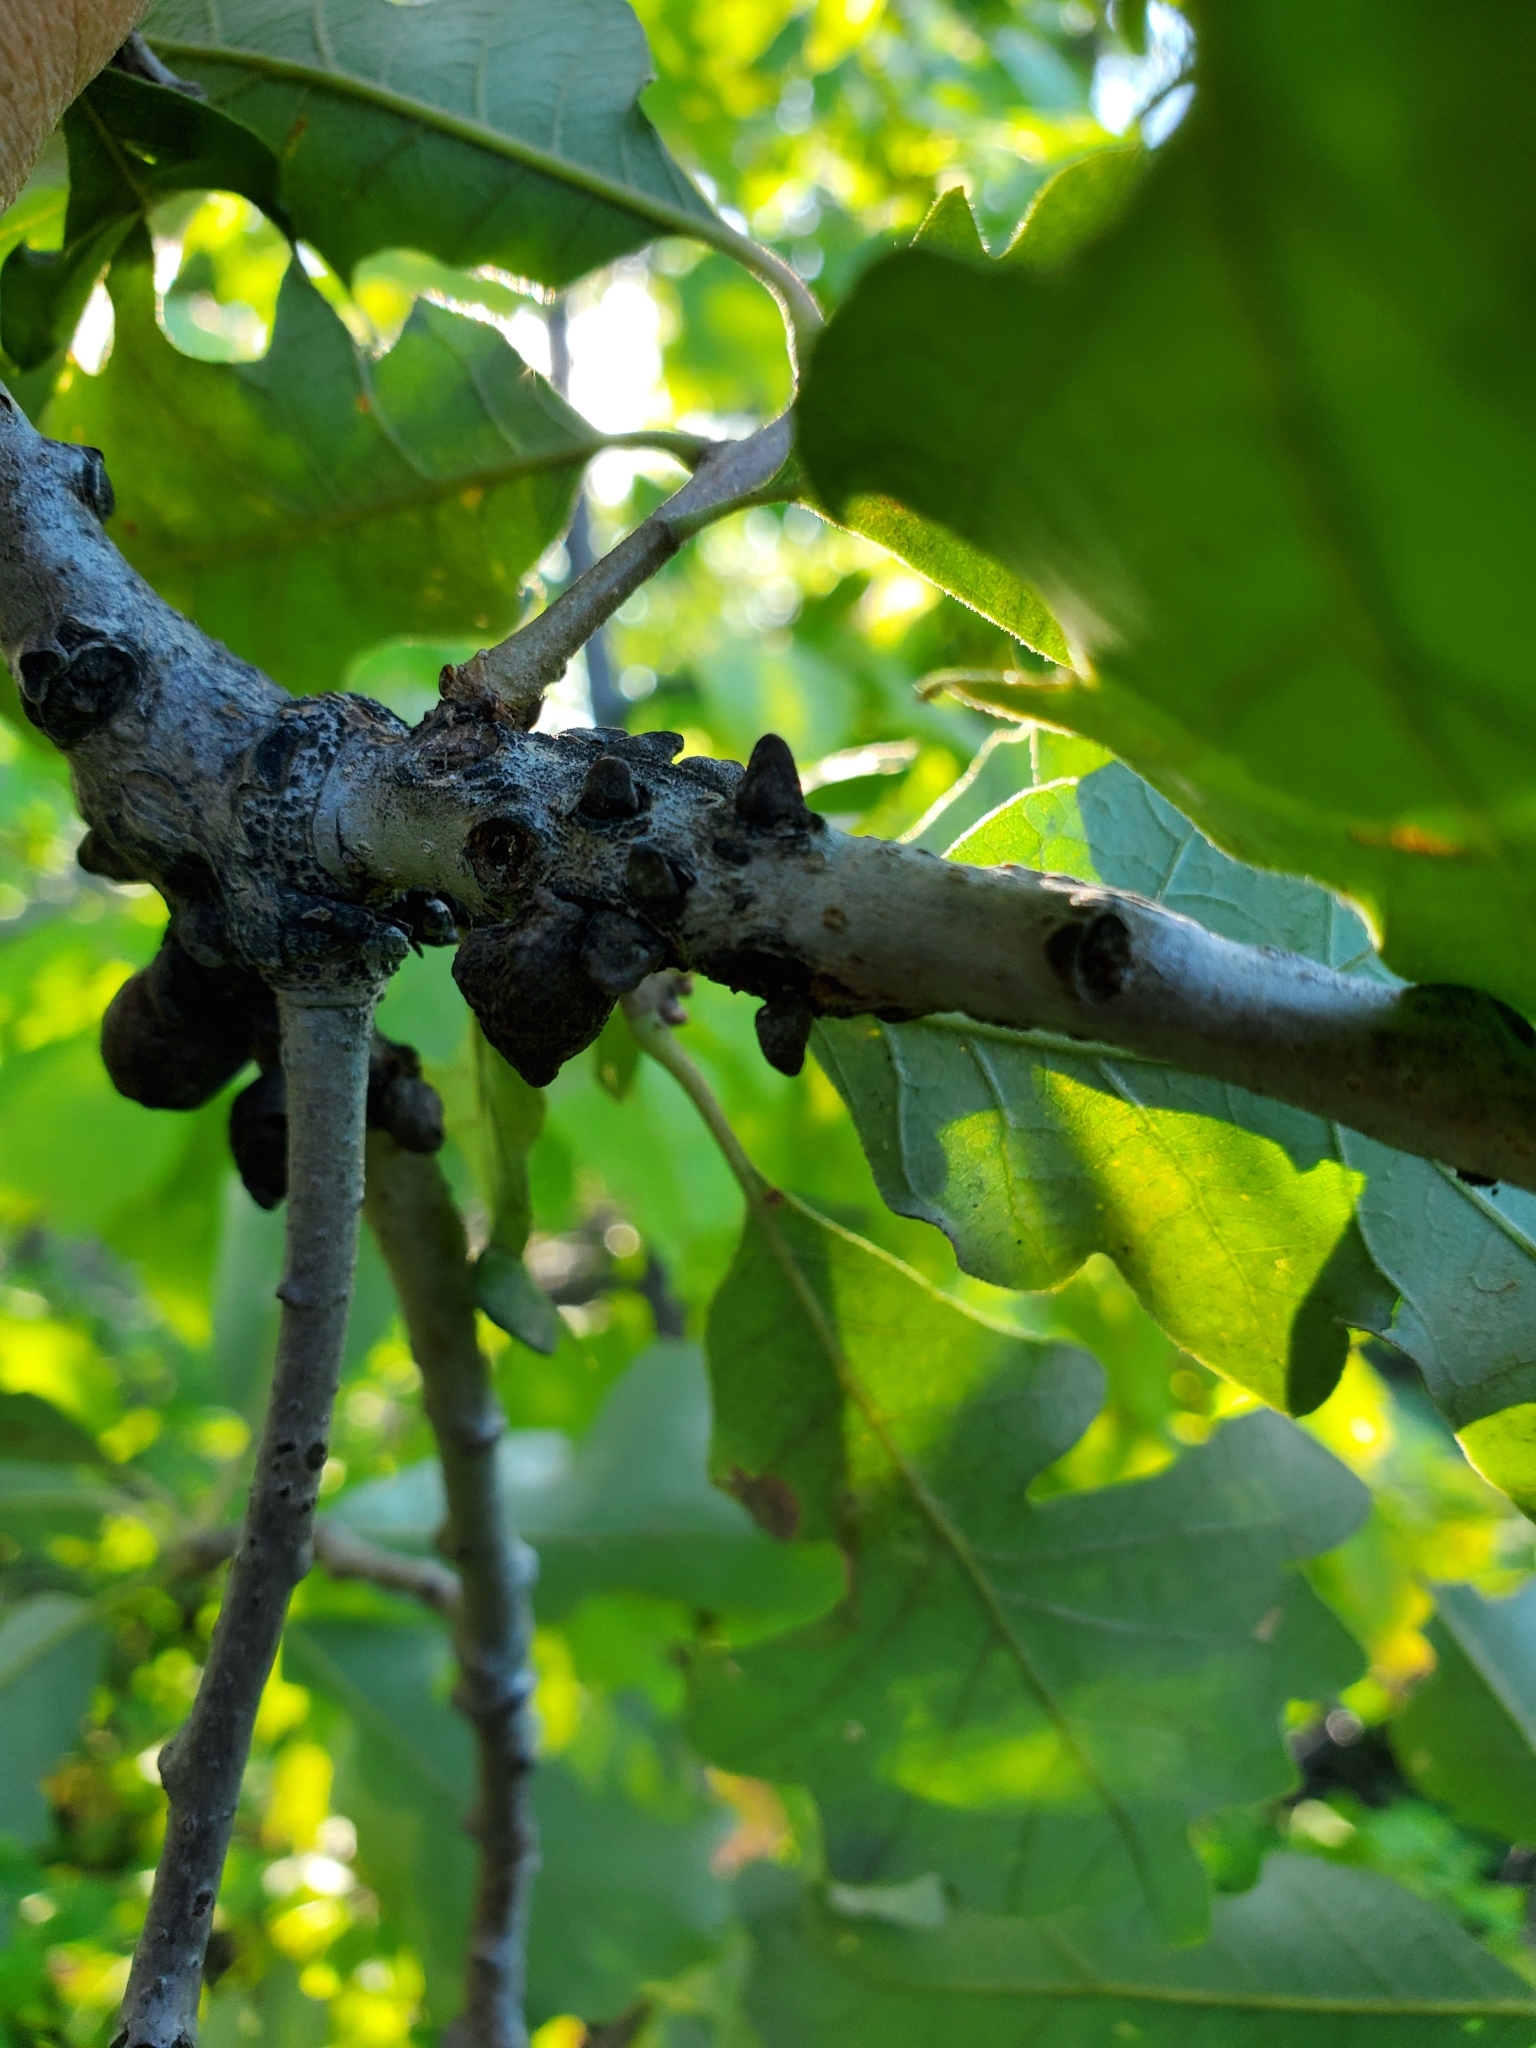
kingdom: Animalia
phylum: Arthropoda
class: Insecta
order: Hymenoptera
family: Cynipidae
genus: Disholcaspis
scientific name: Disholcaspis
